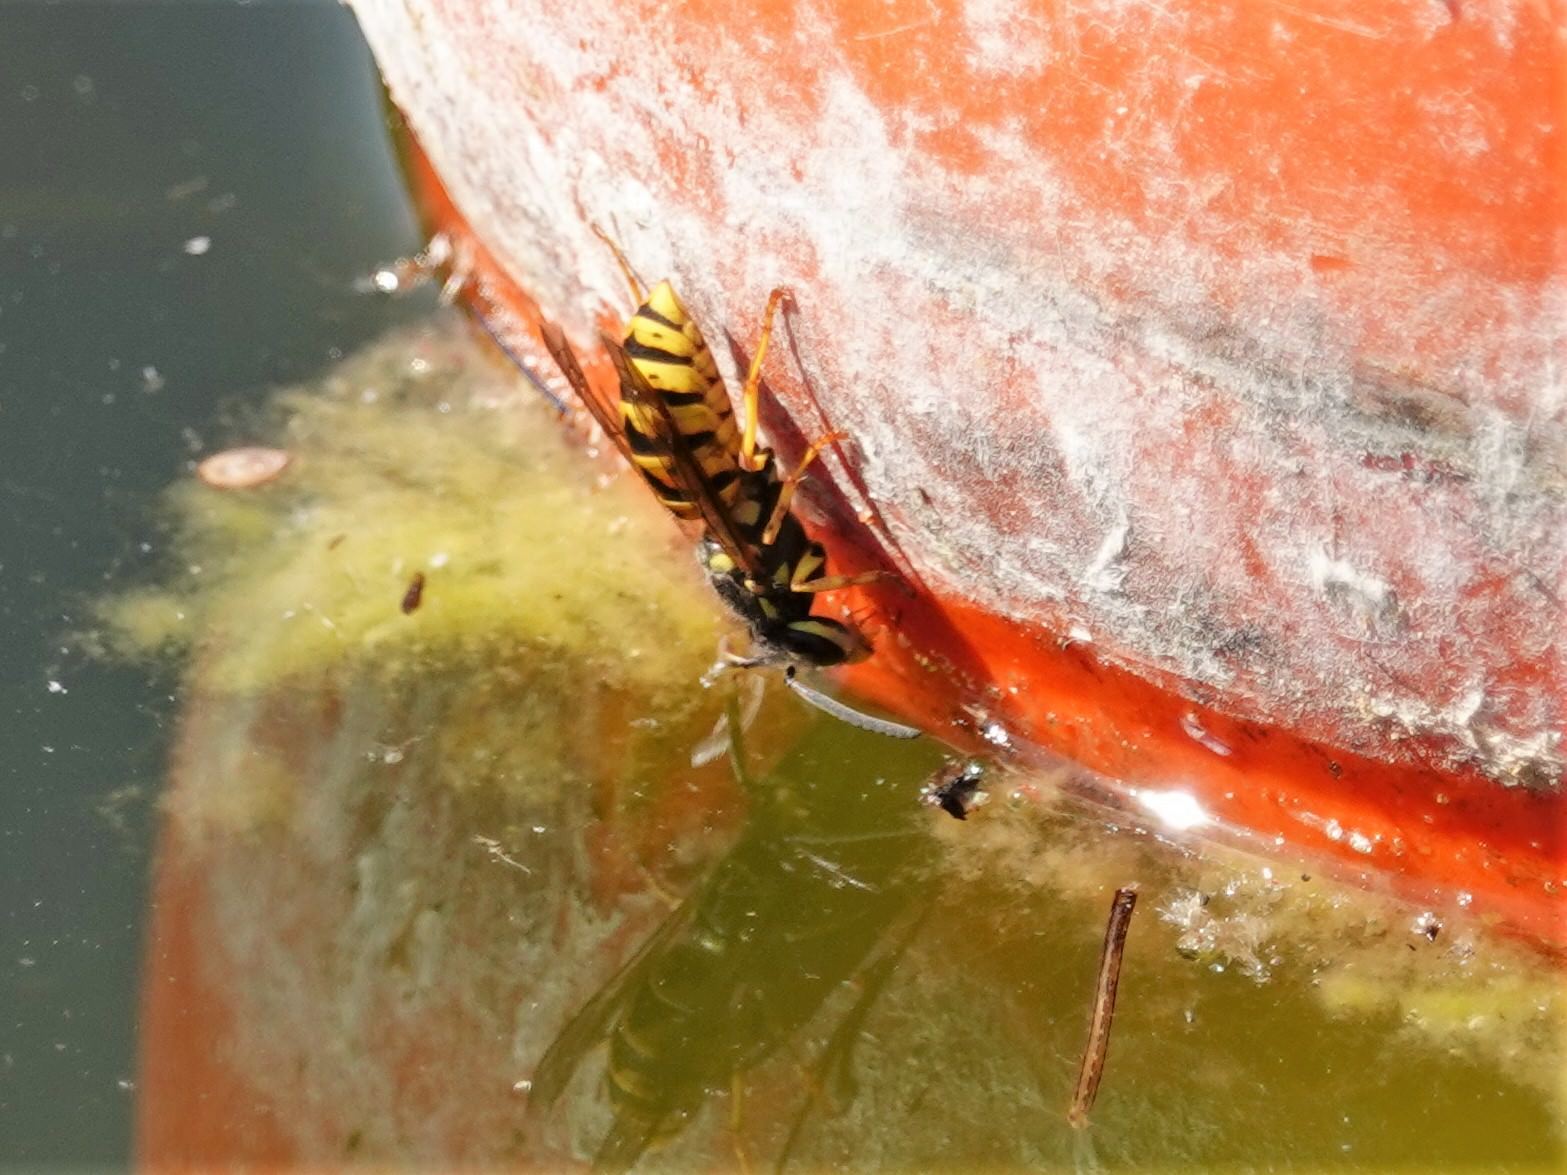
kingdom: Animalia
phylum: Arthropoda
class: Insecta
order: Hymenoptera
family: Vespidae
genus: Vespula
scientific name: Vespula germanica
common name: German wasp
